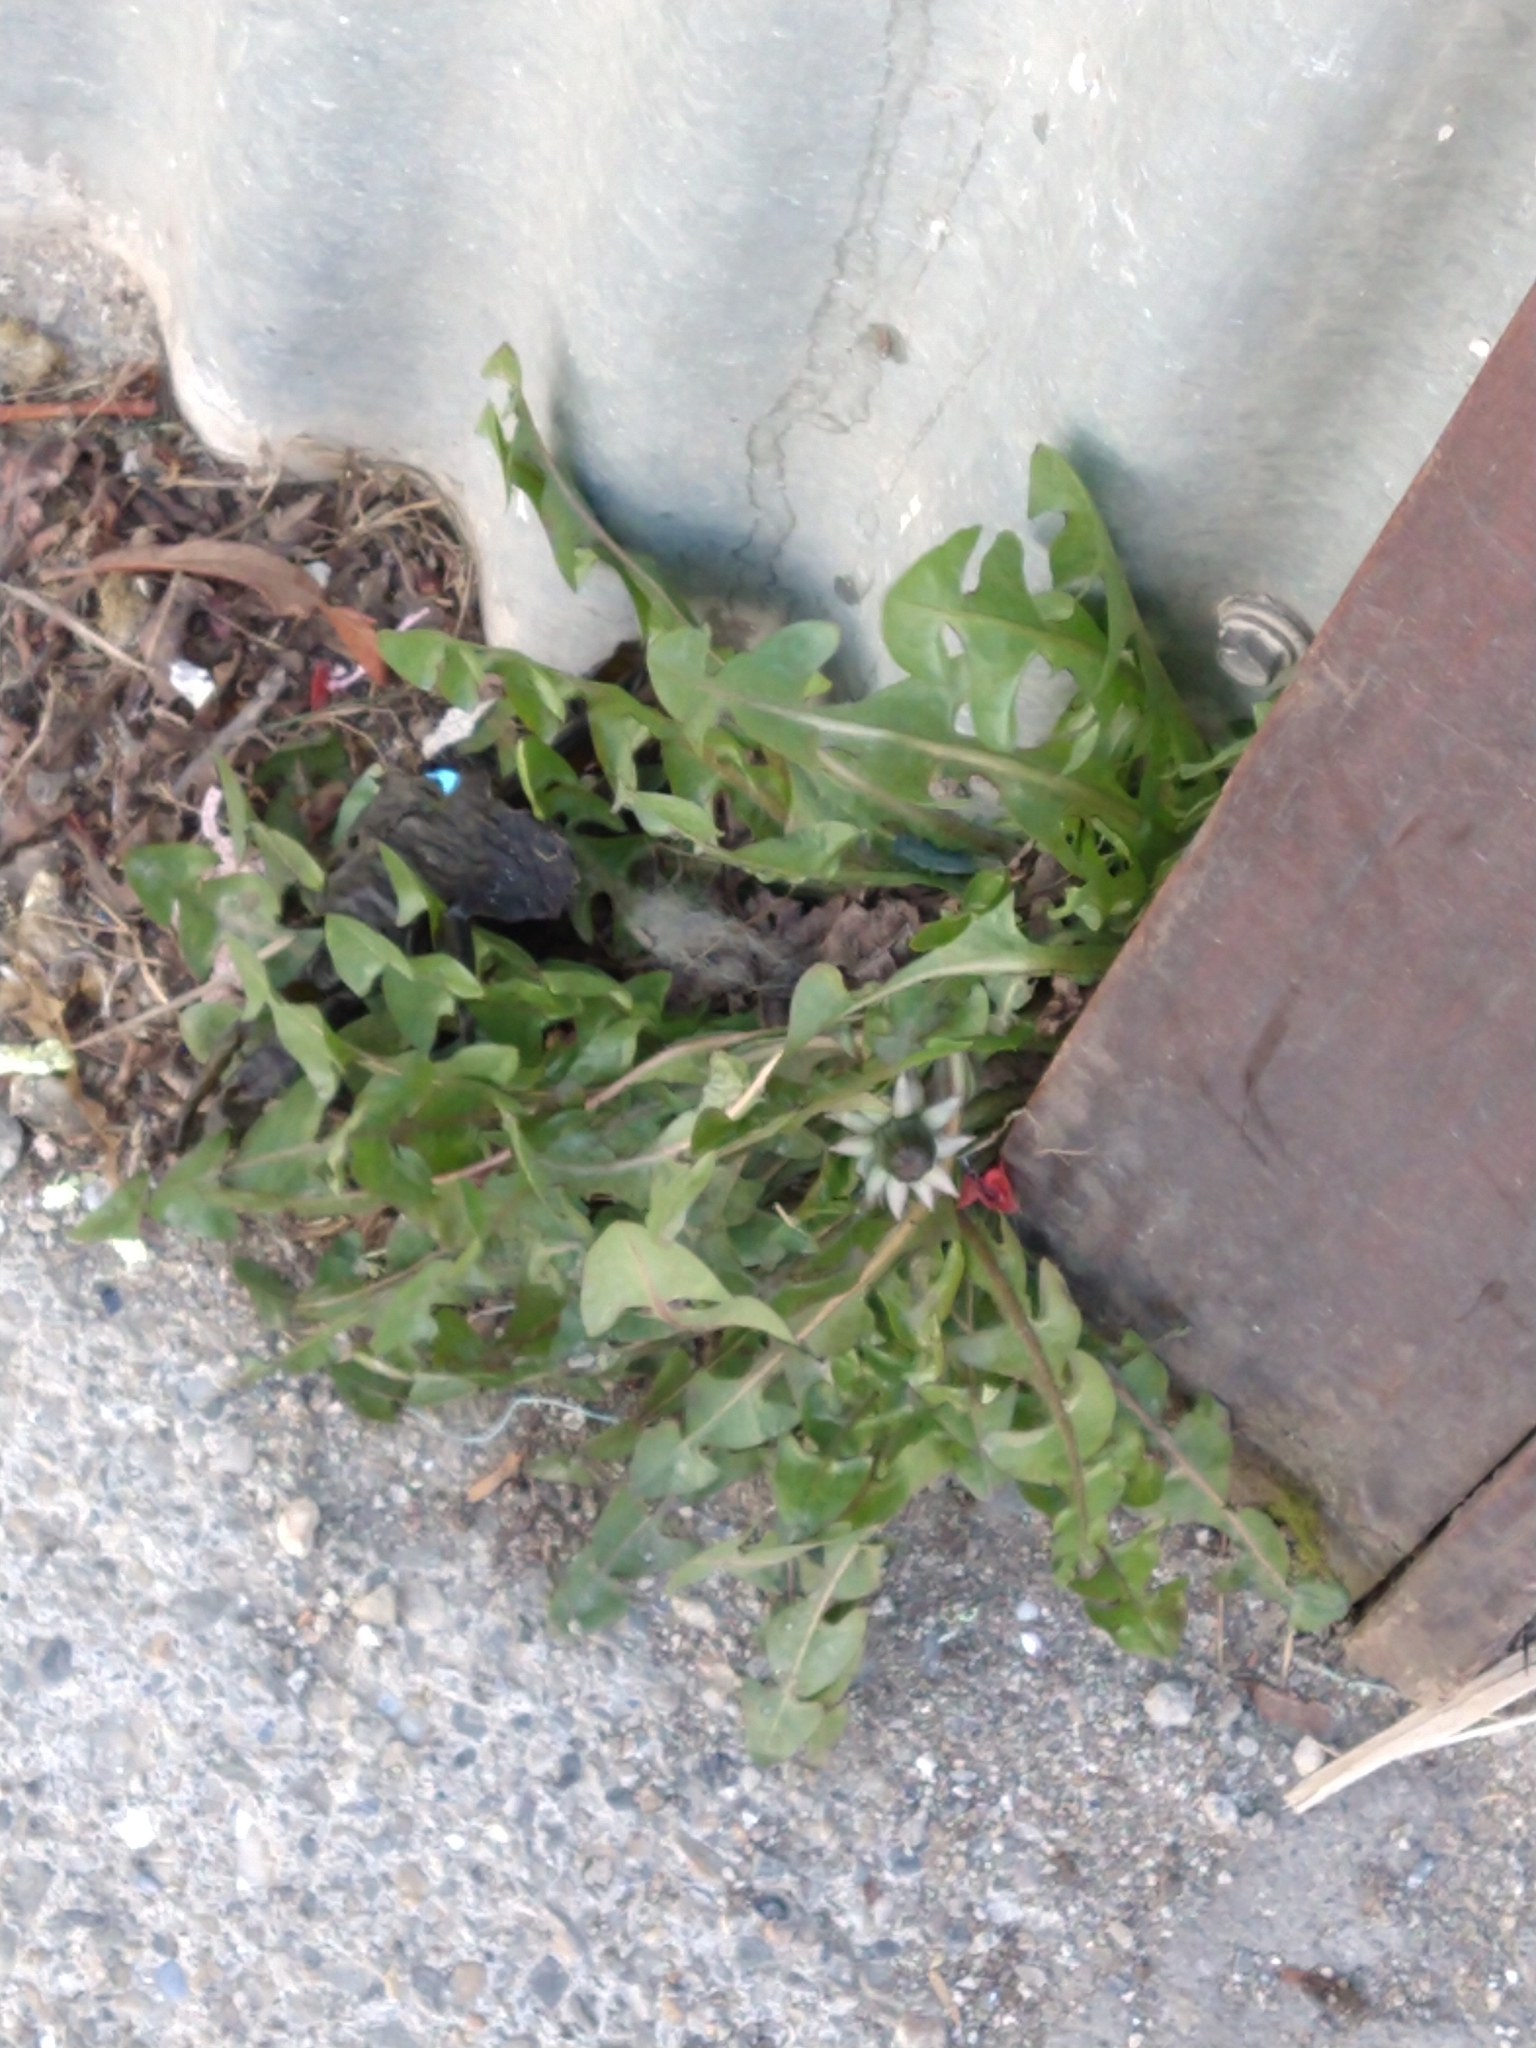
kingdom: Plantae
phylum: Tracheophyta
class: Magnoliopsida
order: Asterales
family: Asteraceae
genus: Taraxacum
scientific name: Taraxacum officinale
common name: Common dandelion
